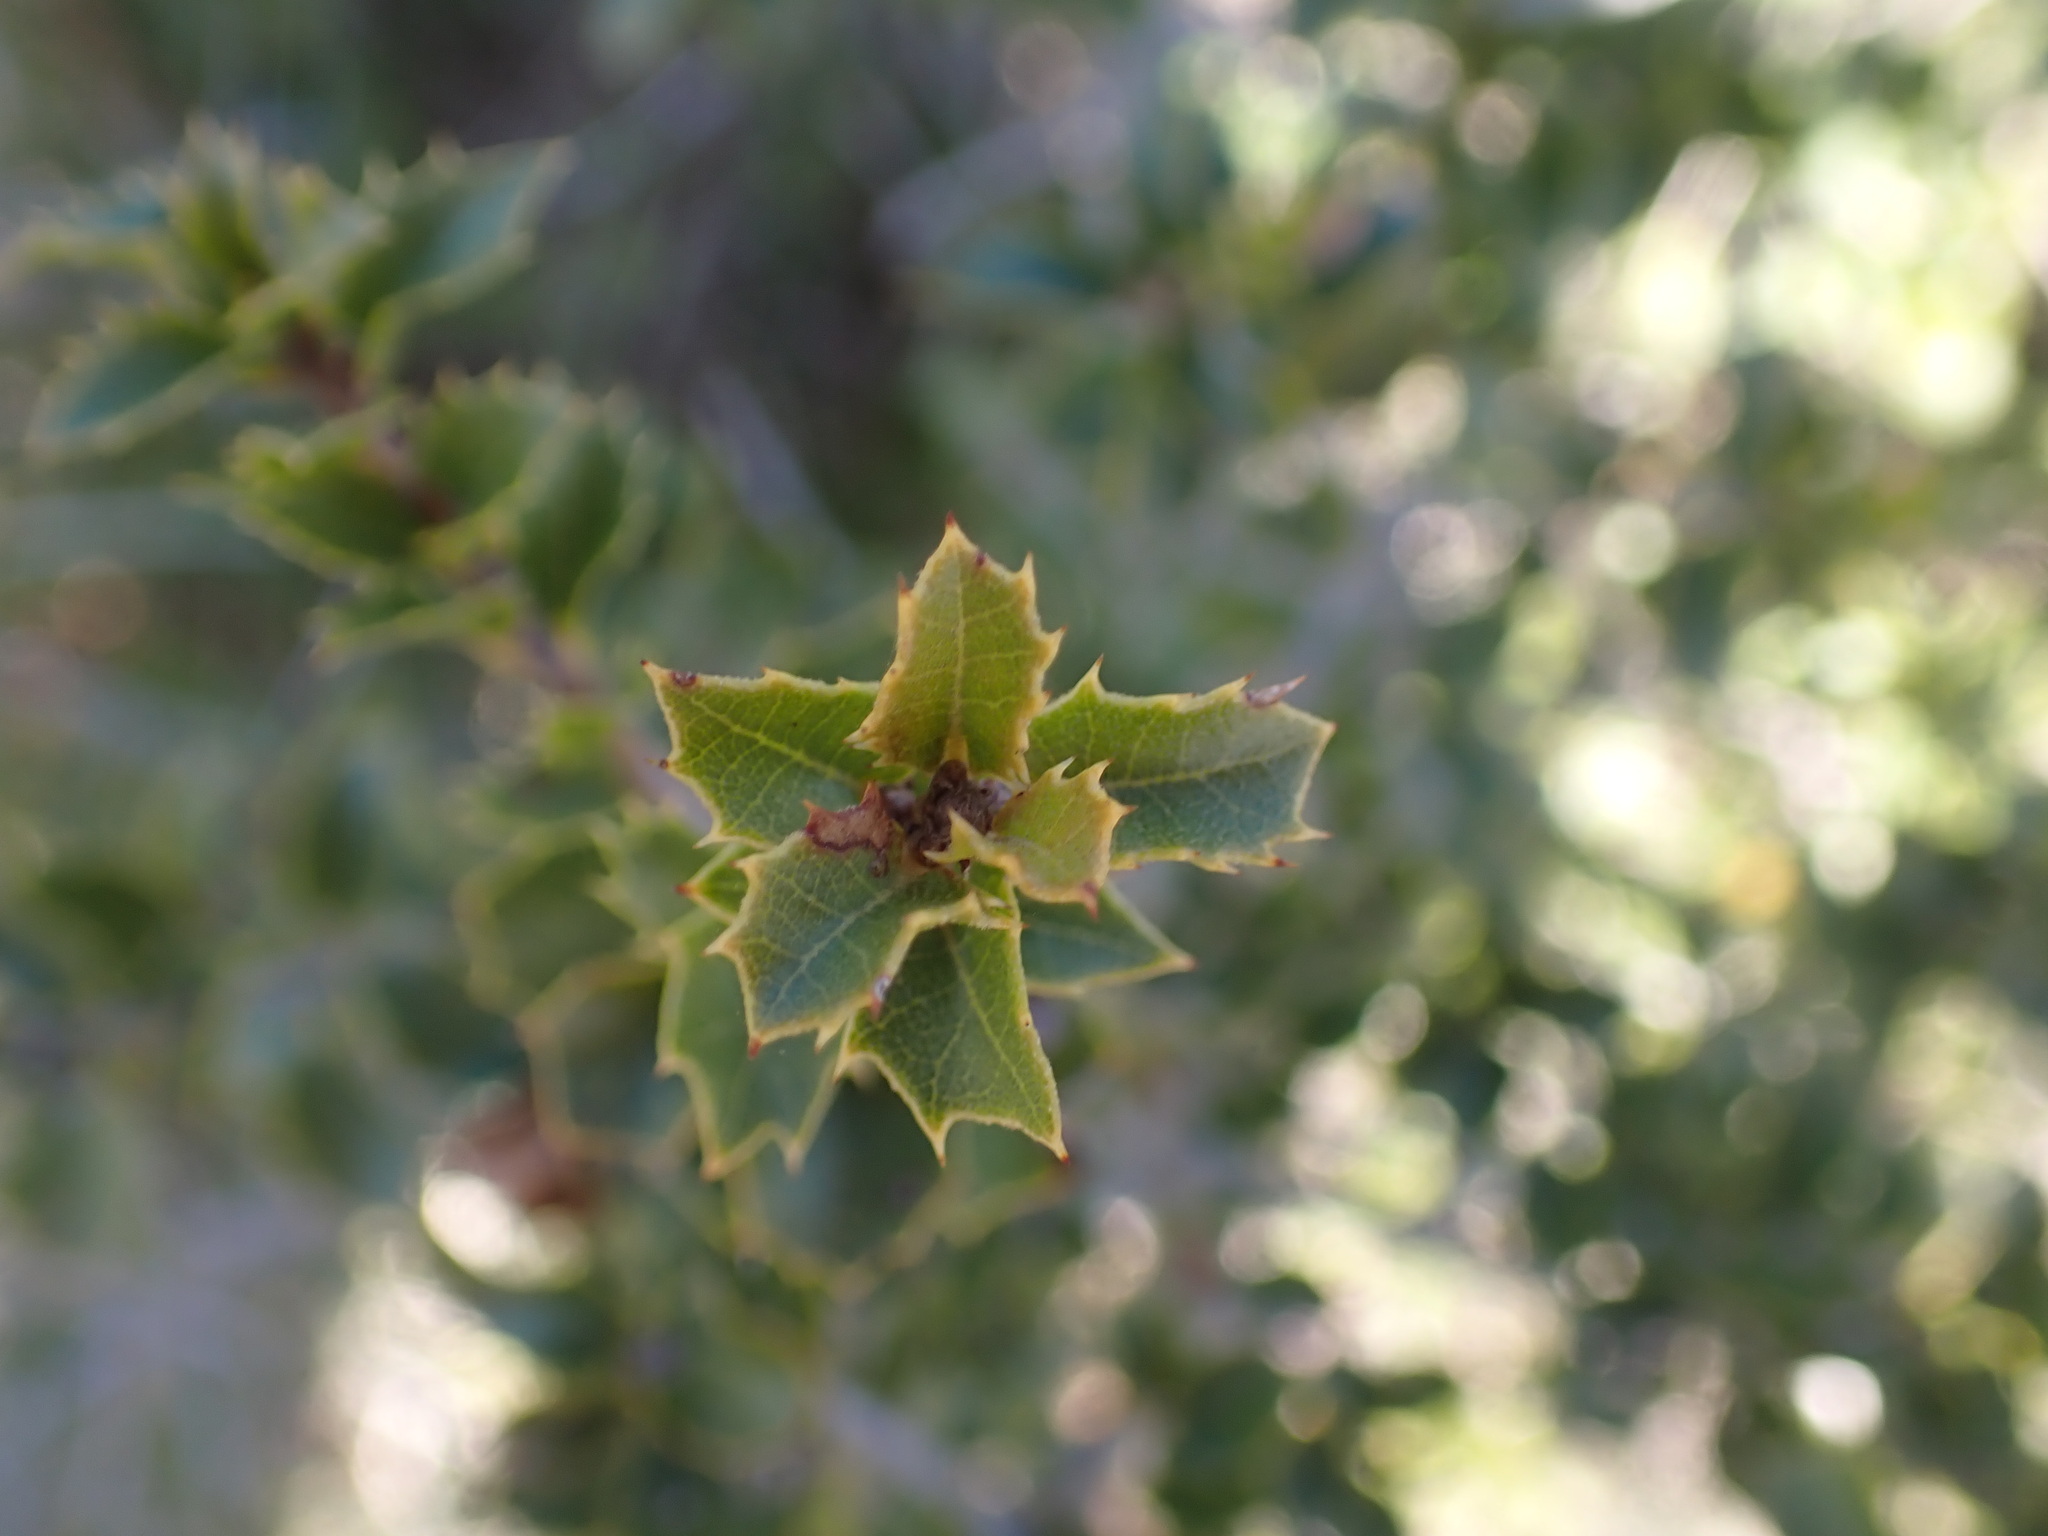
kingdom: Plantae
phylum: Tracheophyta
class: Magnoliopsida
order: Fagales
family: Fagaceae
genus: Quercus
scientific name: Quercus coccifera
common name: Kermes oak
